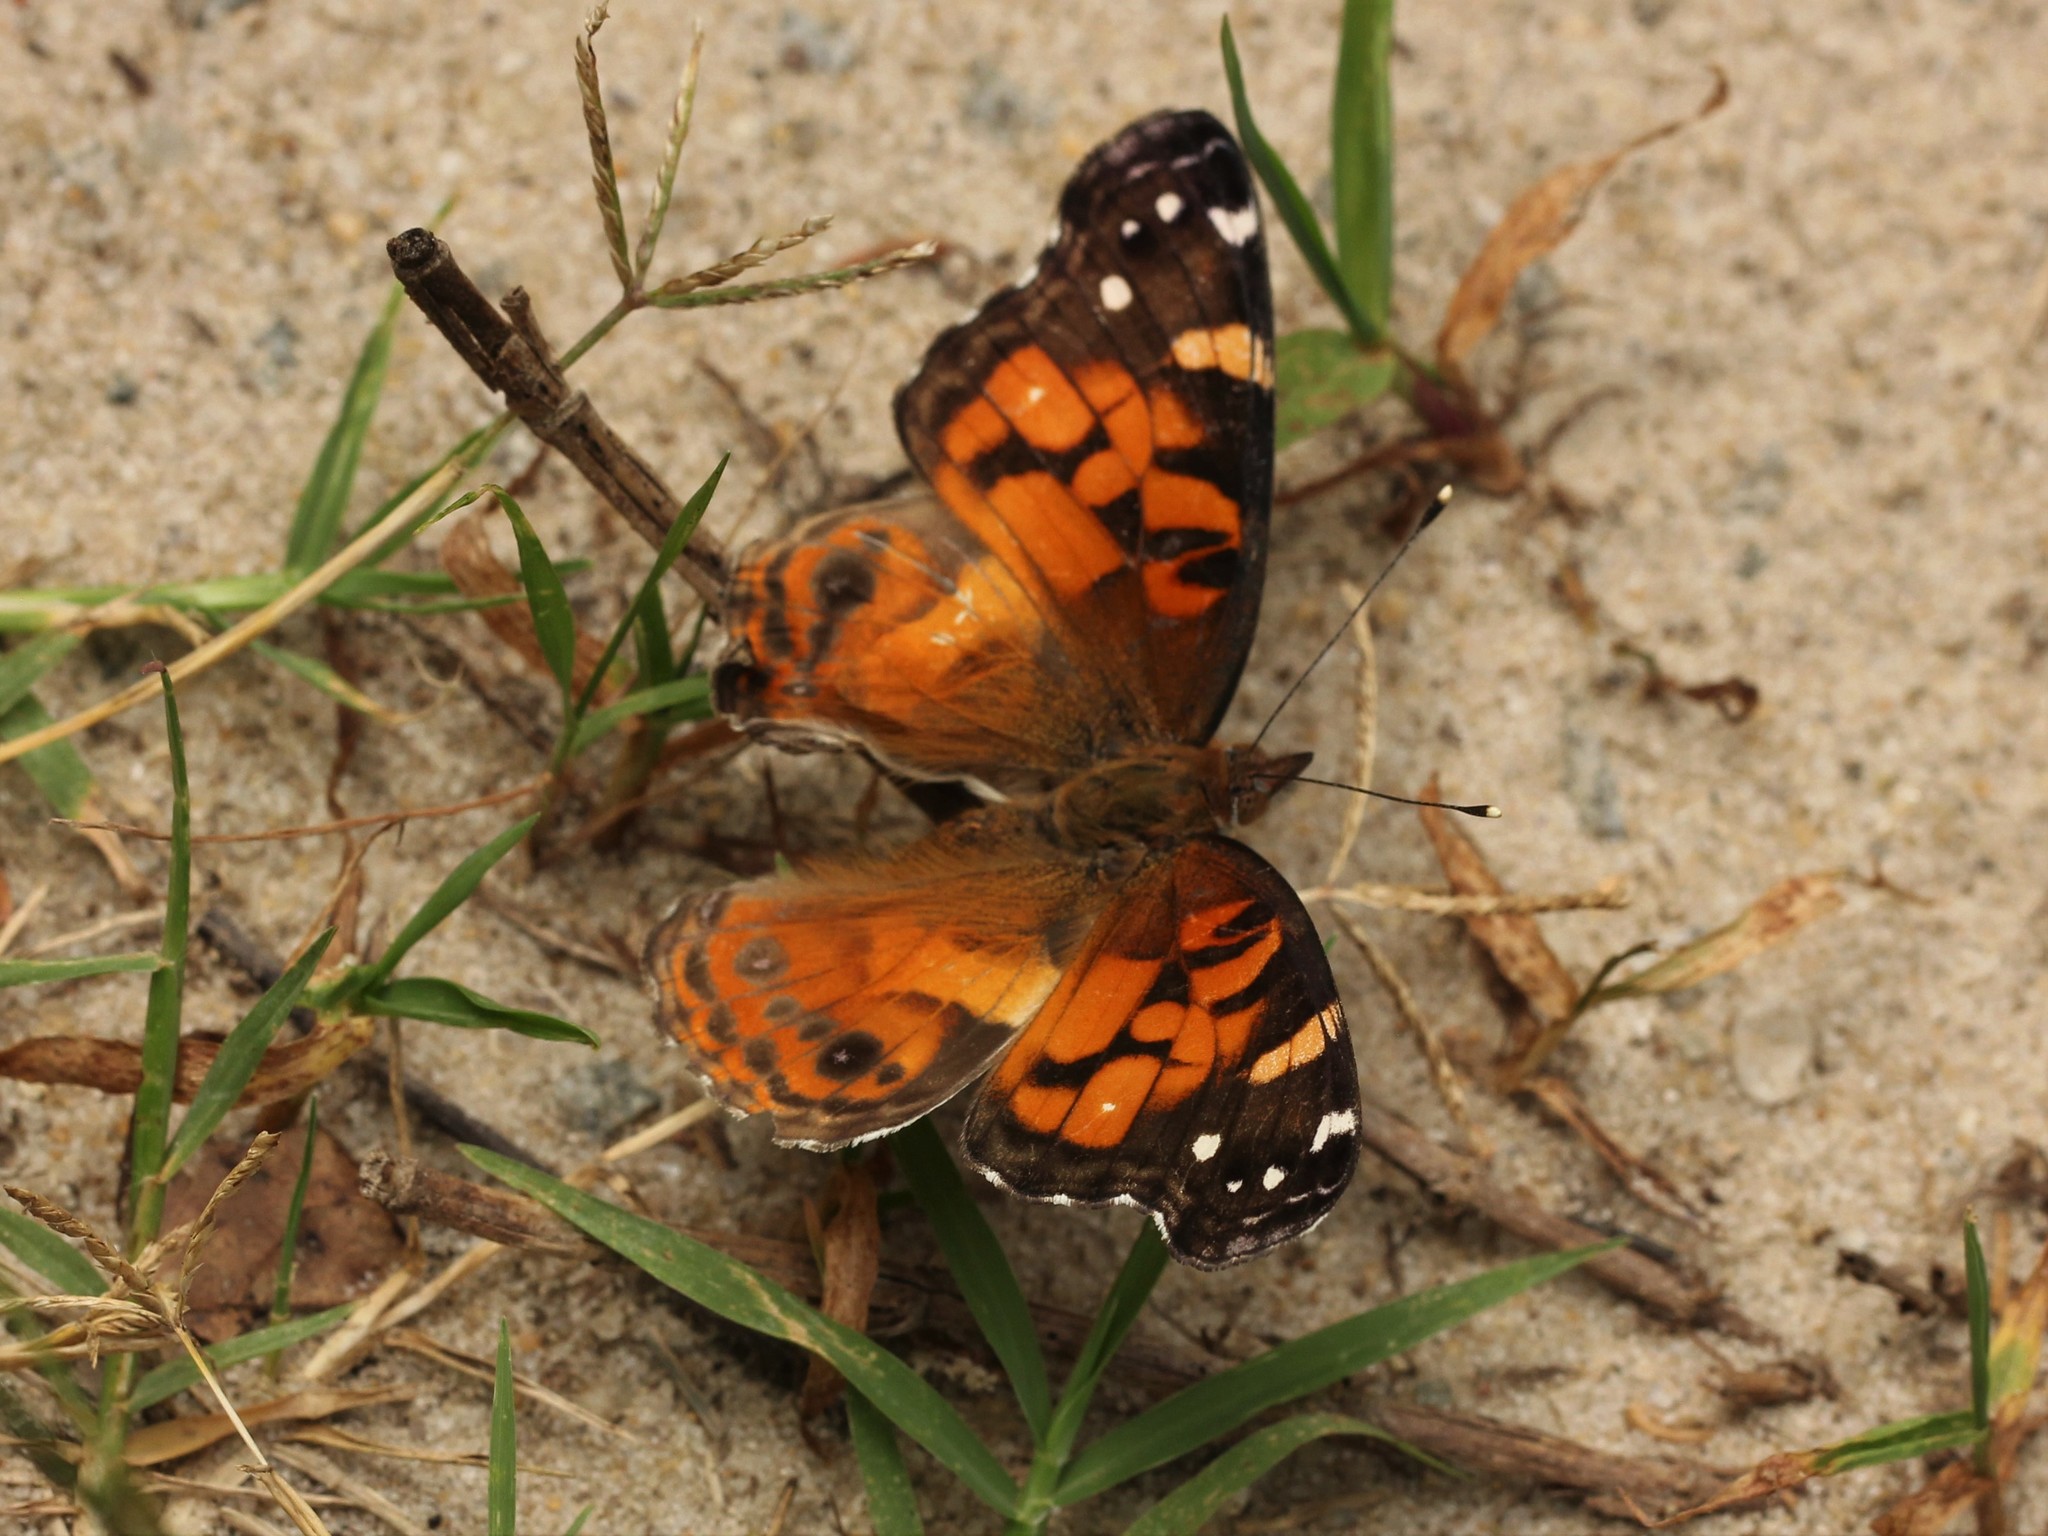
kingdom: Animalia
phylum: Arthropoda
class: Insecta
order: Lepidoptera
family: Nymphalidae
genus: Vanessa
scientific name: Vanessa virginiensis
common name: American lady
